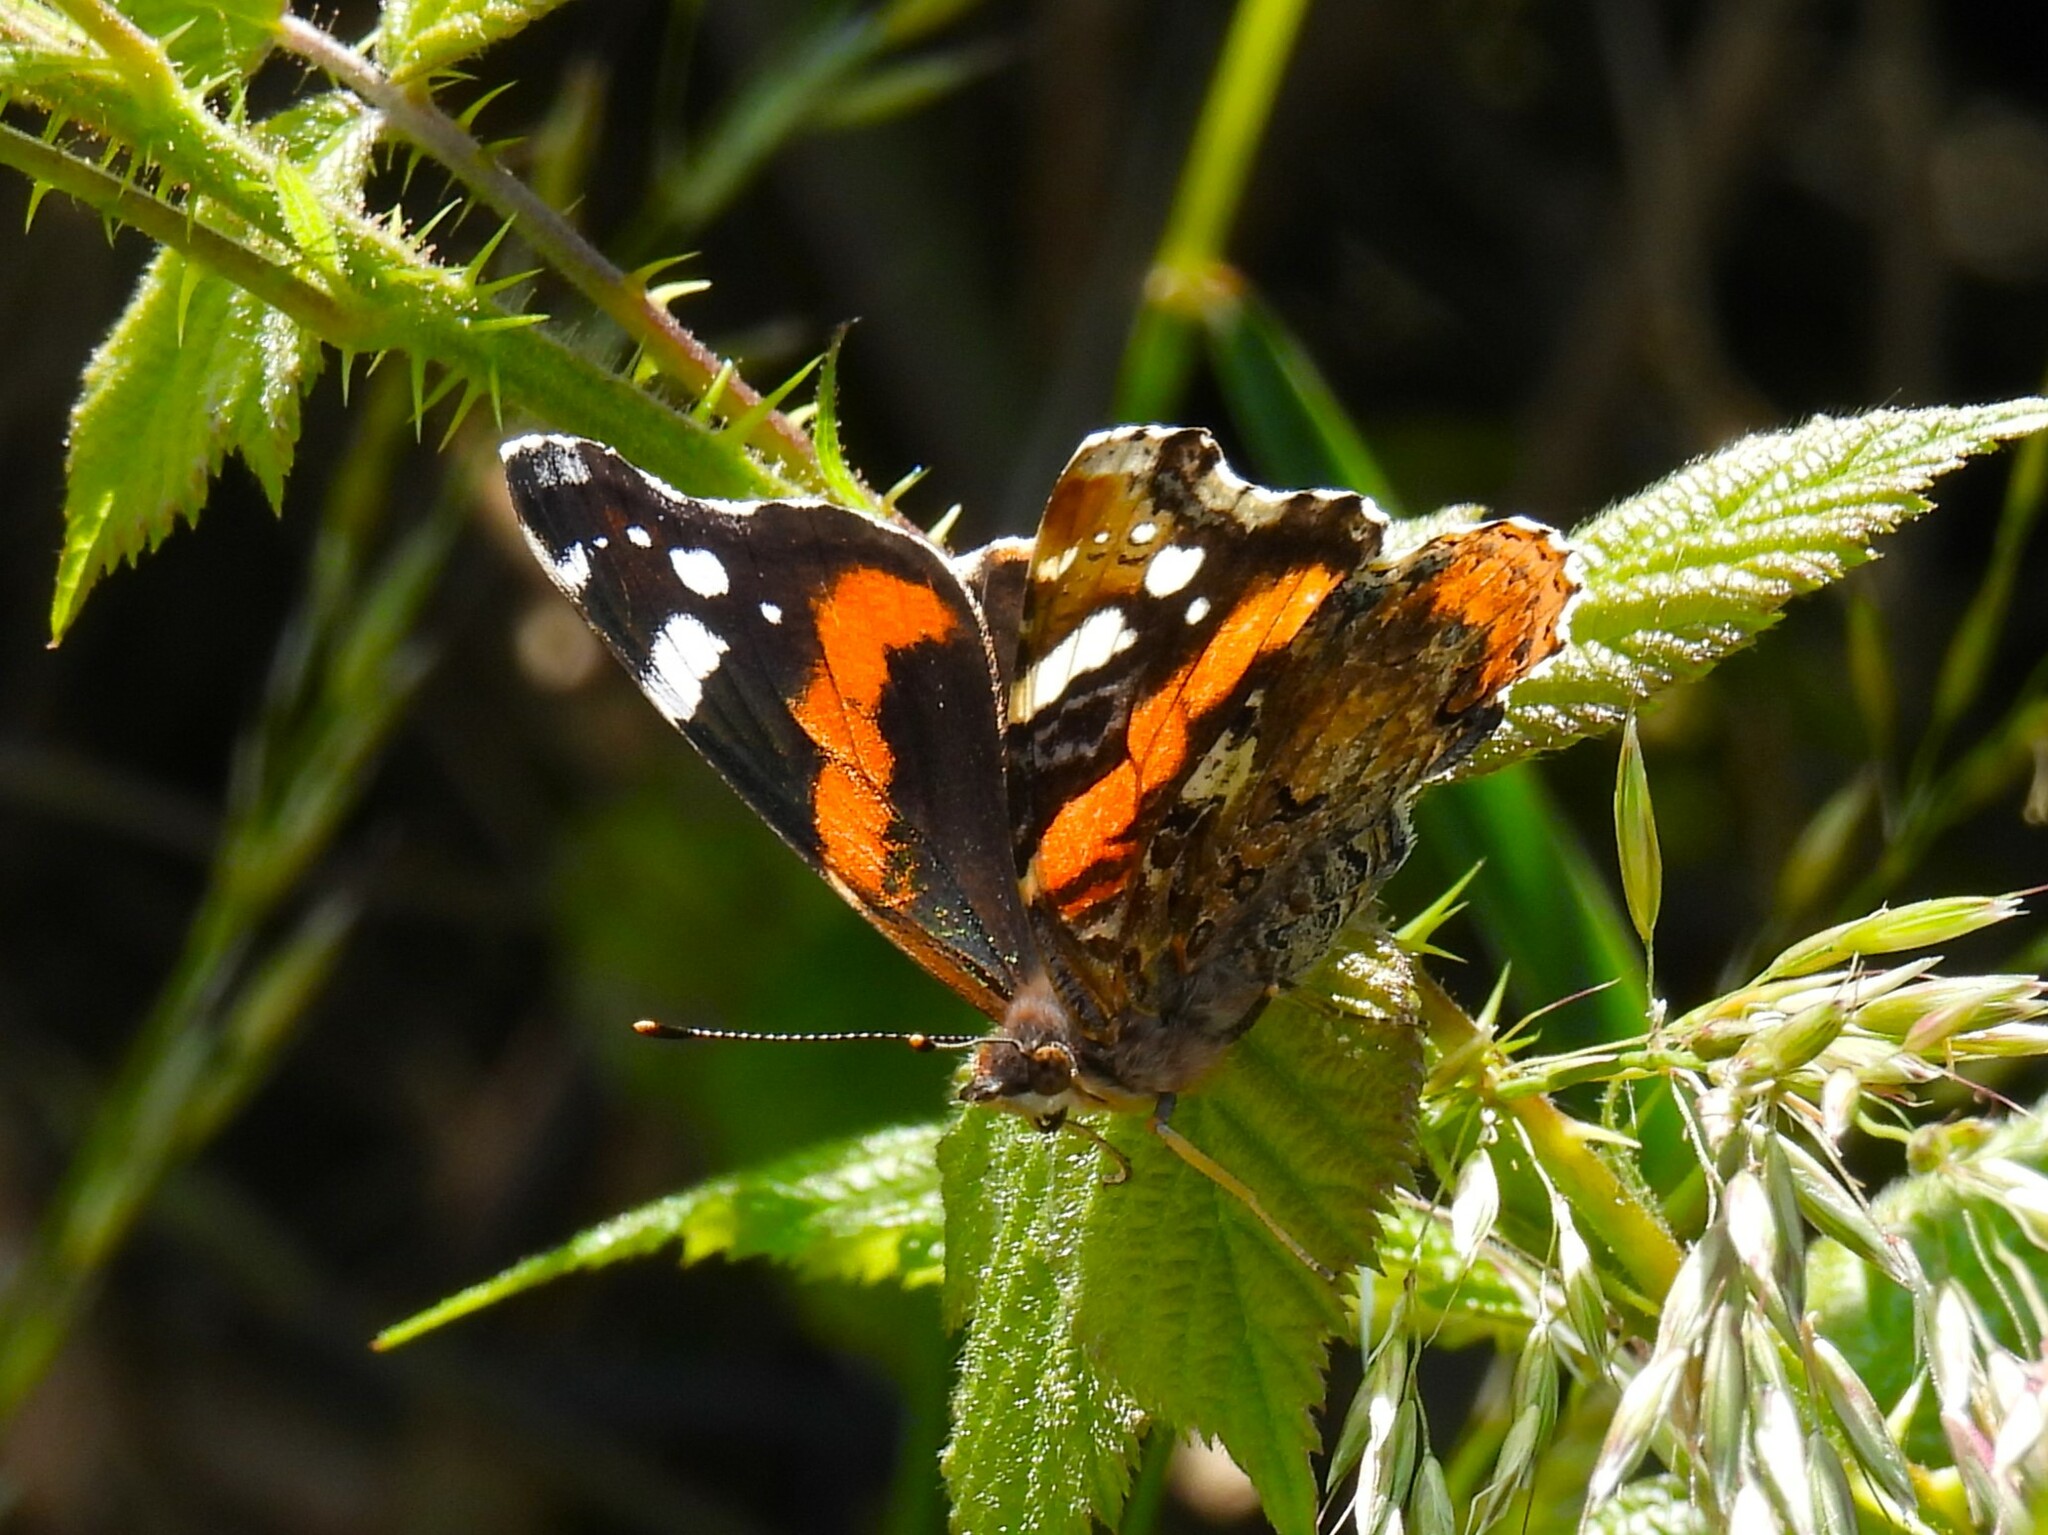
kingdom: Animalia
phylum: Arthropoda
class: Insecta
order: Lepidoptera
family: Nymphalidae
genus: Vanessa
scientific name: Vanessa atalanta
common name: Red admiral
